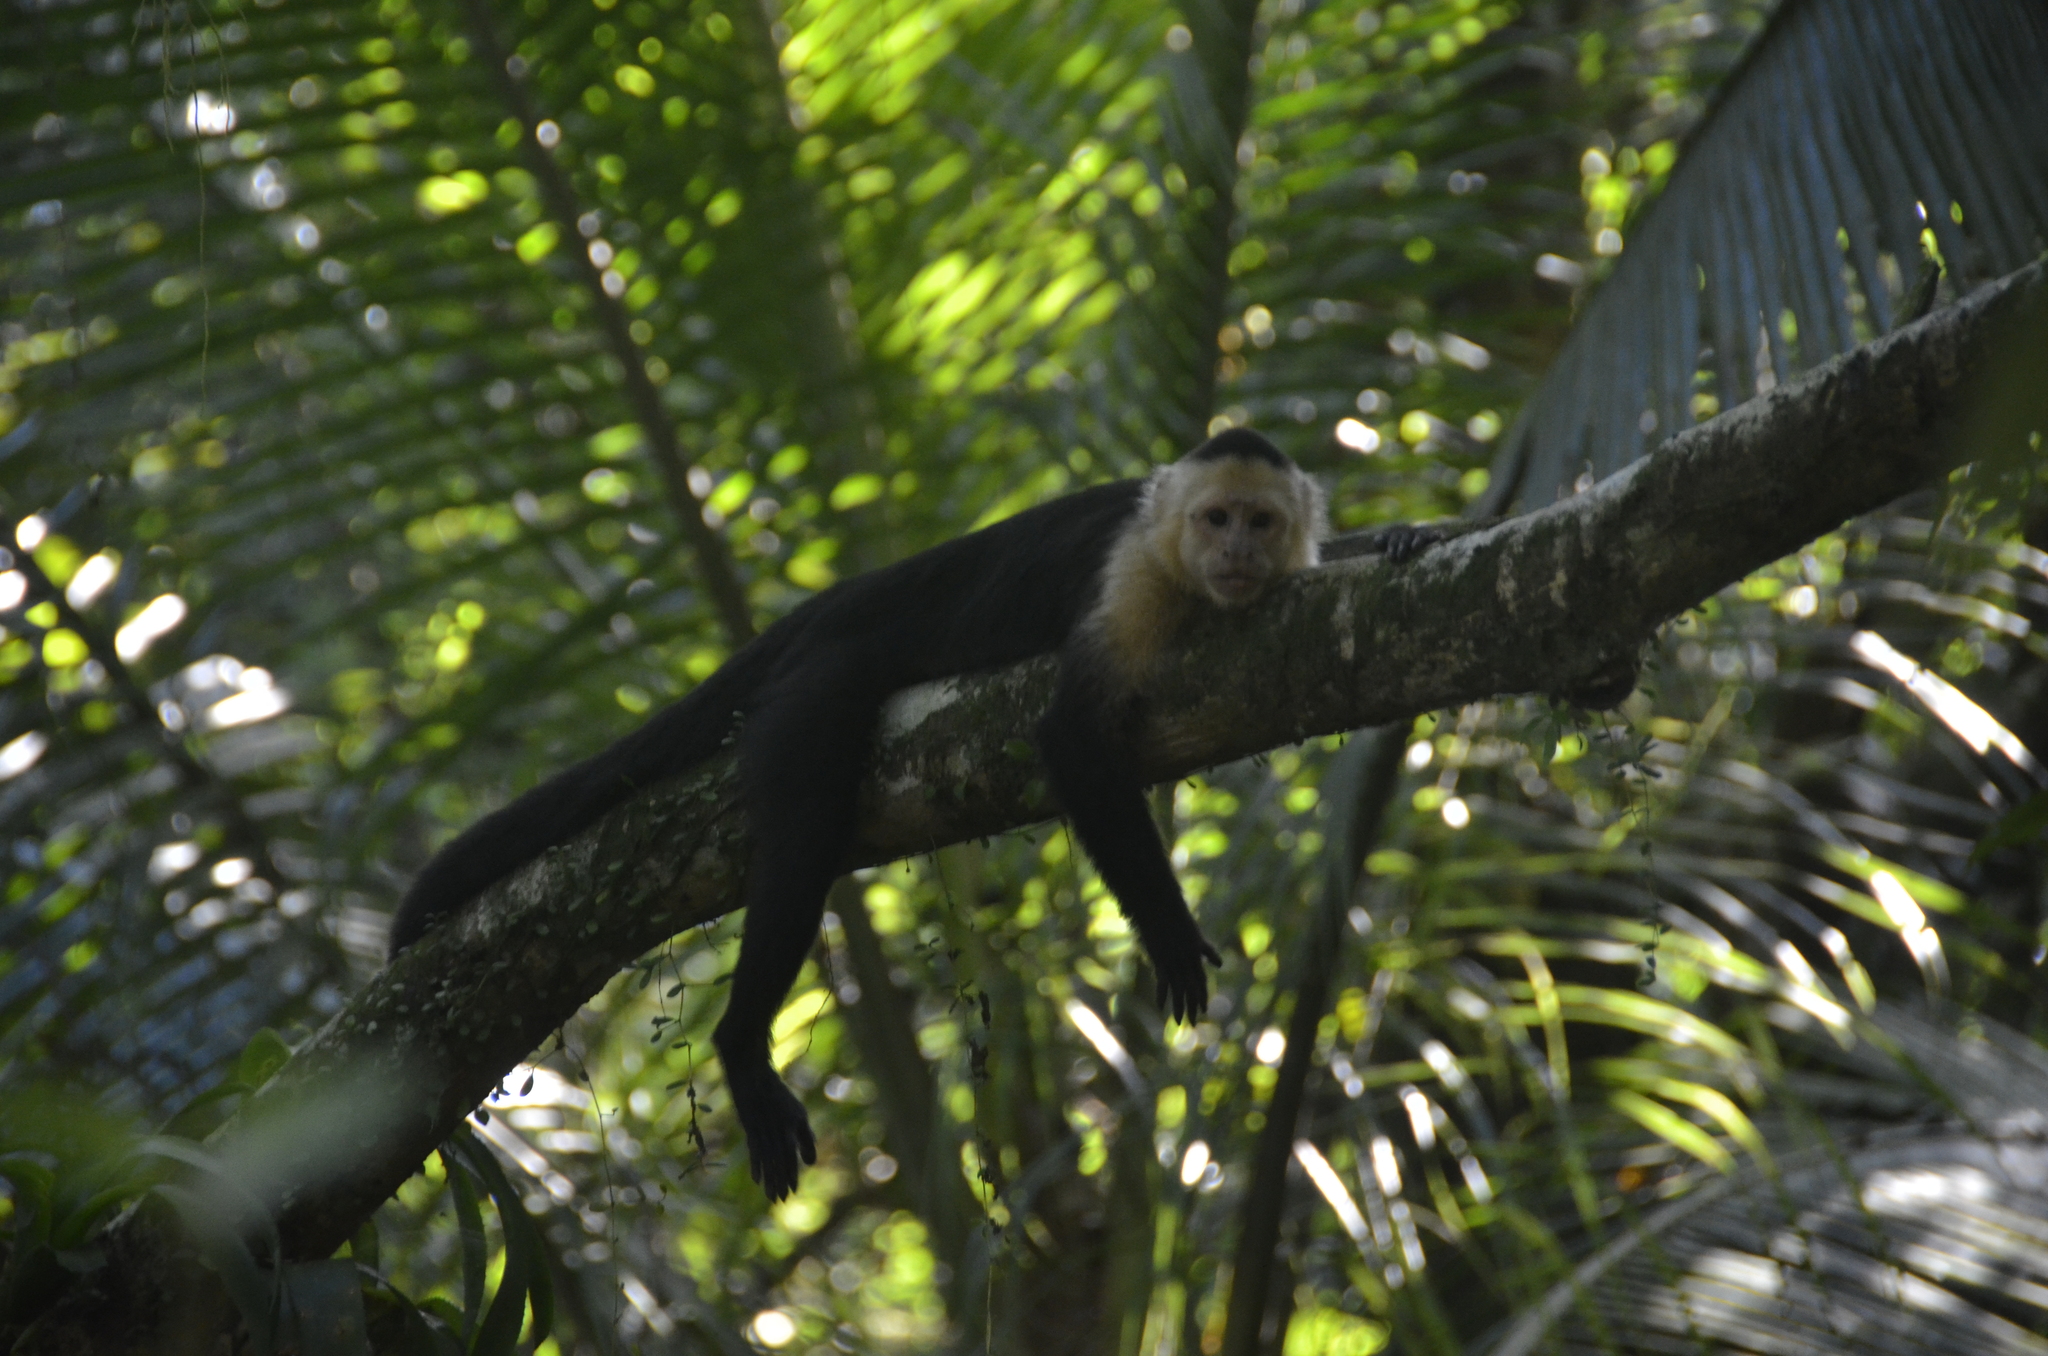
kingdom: Animalia
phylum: Chordata
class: Mammalia
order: Primates
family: Cebidae
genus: Cebus
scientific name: Cebus imitator
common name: Panamanian white-faced capuchin
